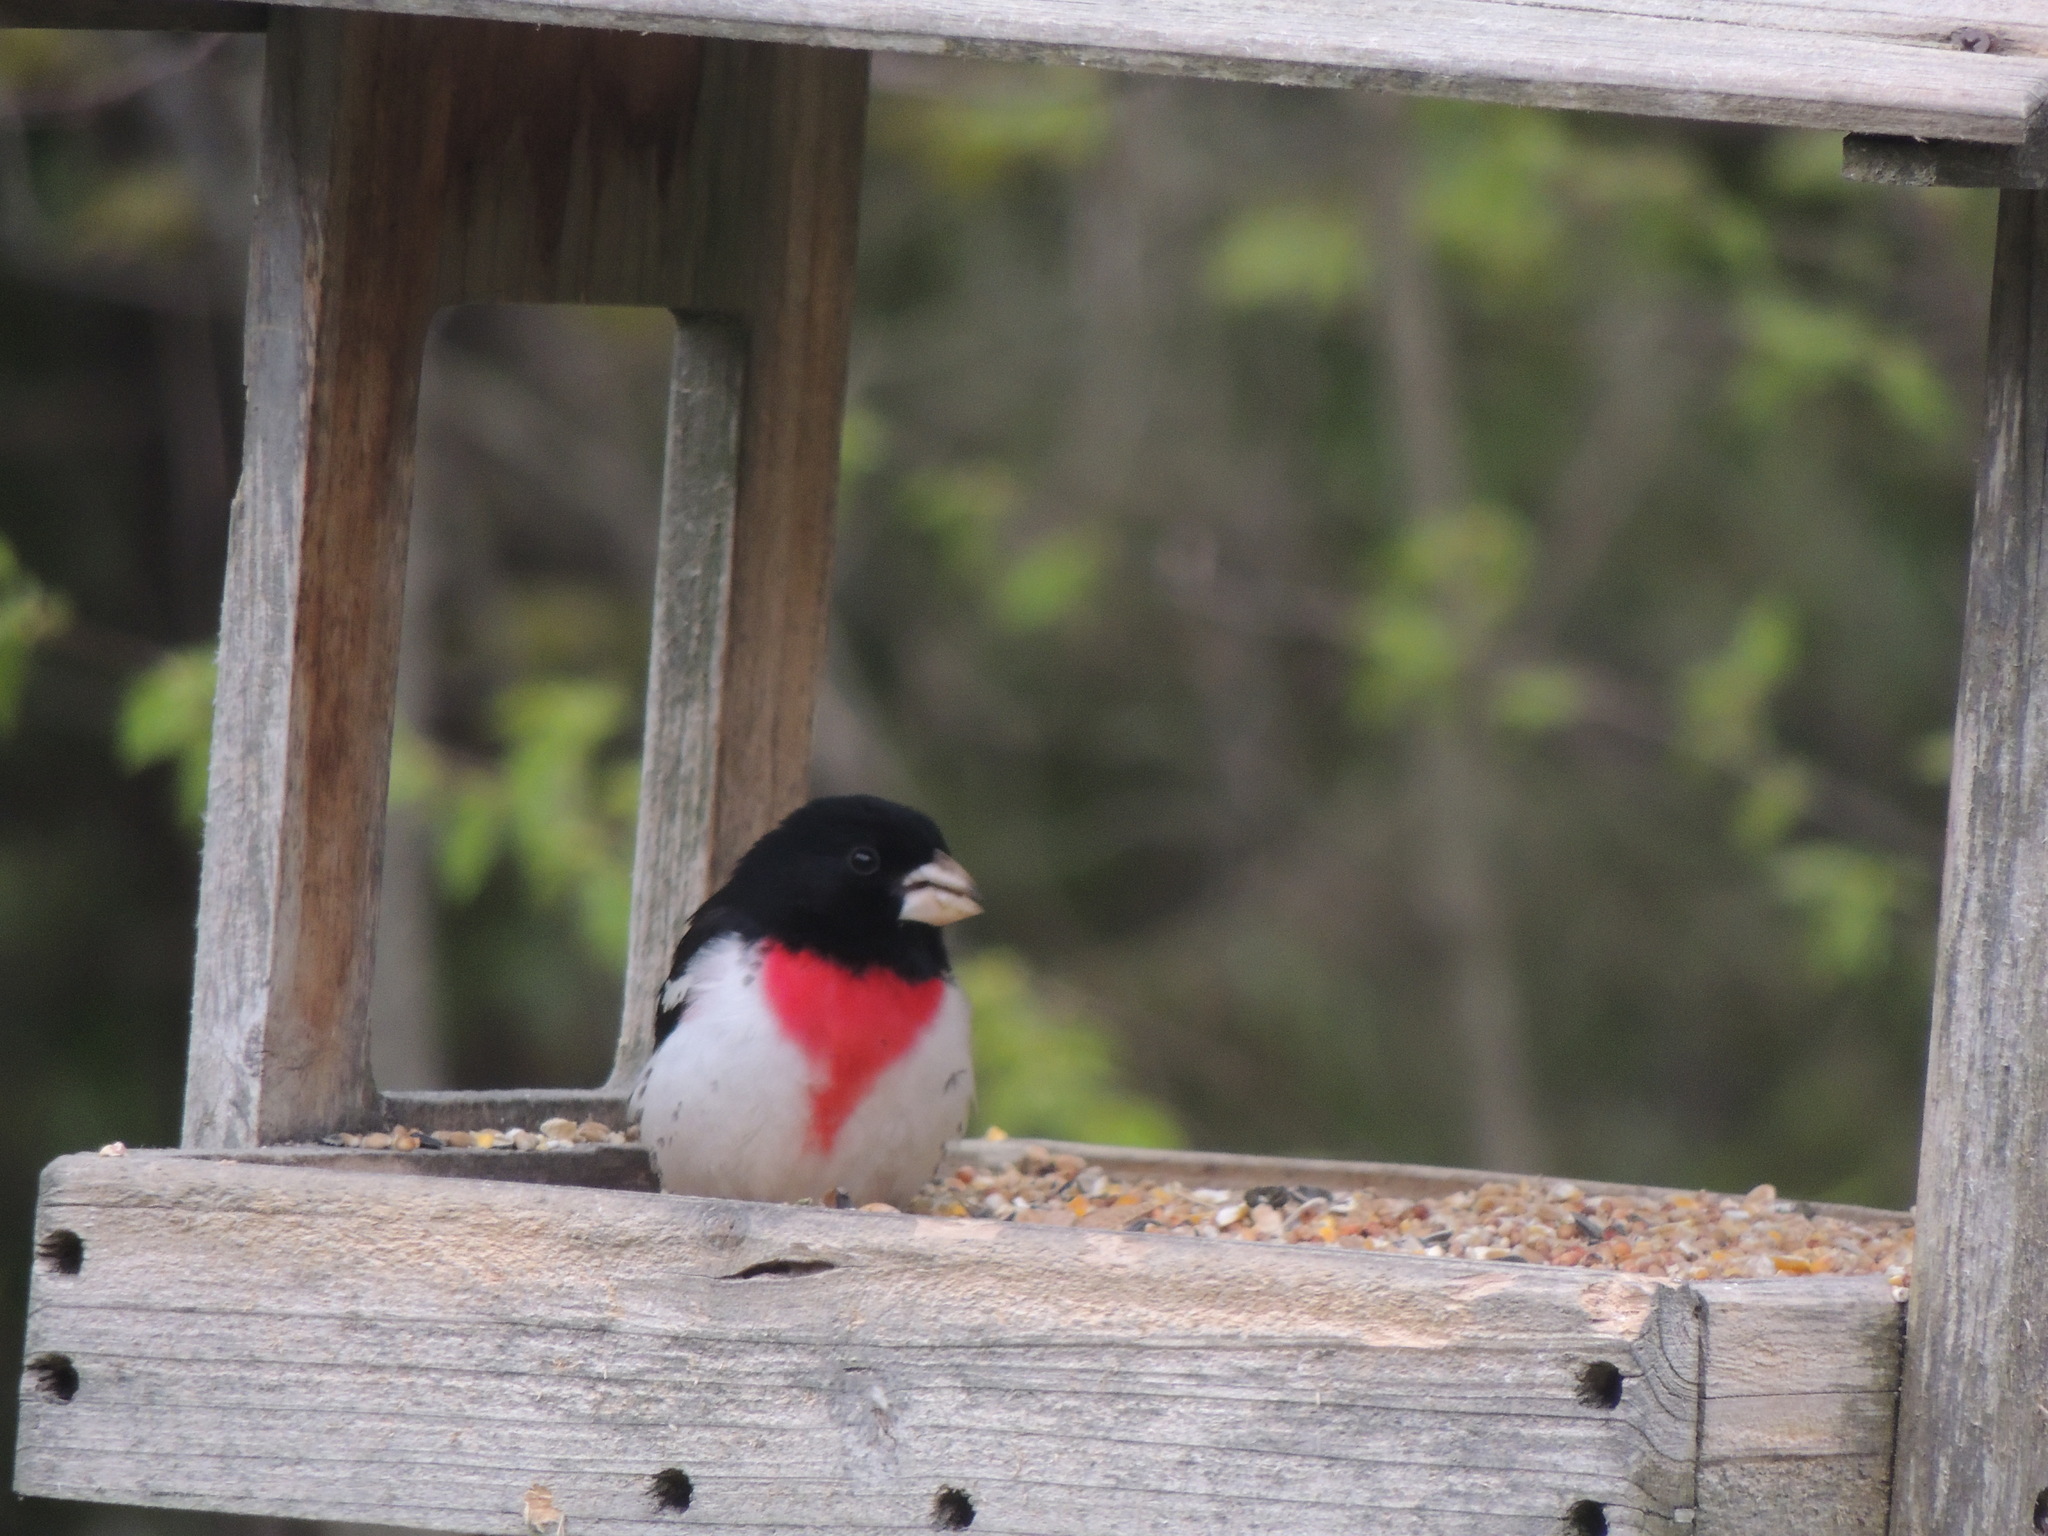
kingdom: Animalia
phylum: Chordata
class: Aves
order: Passeriformes
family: Cardinalidae
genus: Pheucticus
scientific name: Pheucticus ludovicianus
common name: Rose-breasted grosbeak
